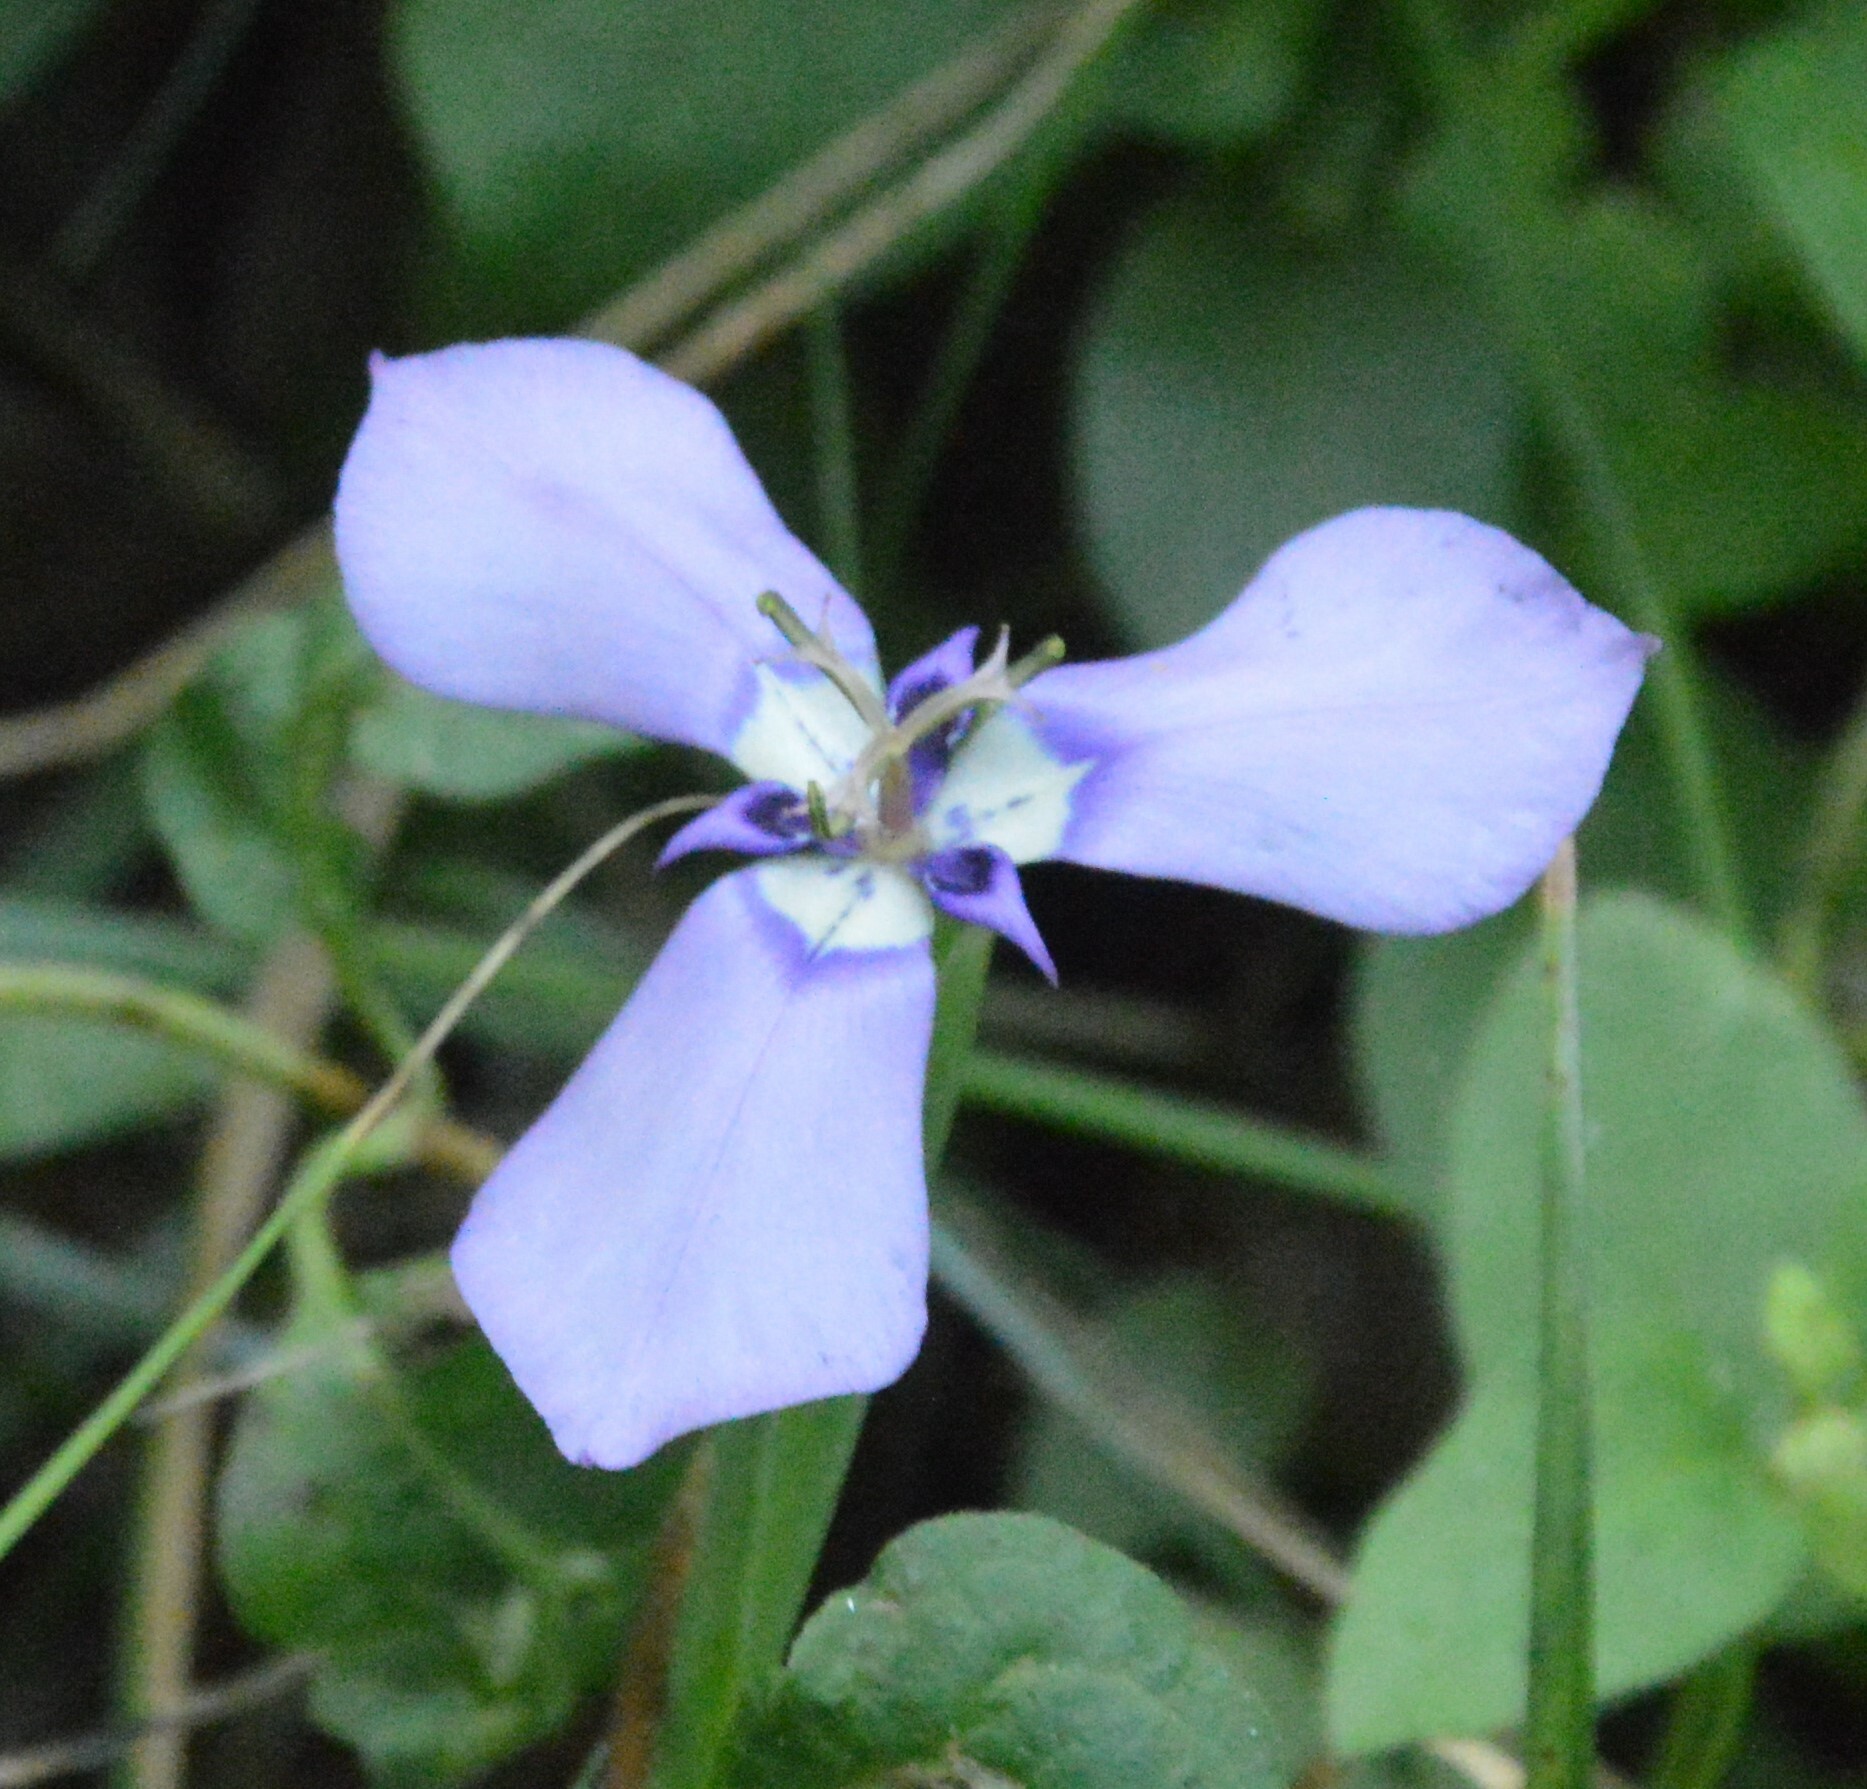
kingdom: Plantae
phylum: Tracheophyta
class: Liliopsida
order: Asparagales
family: Iridaceae
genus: Herbertia
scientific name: Herbertia lahue
